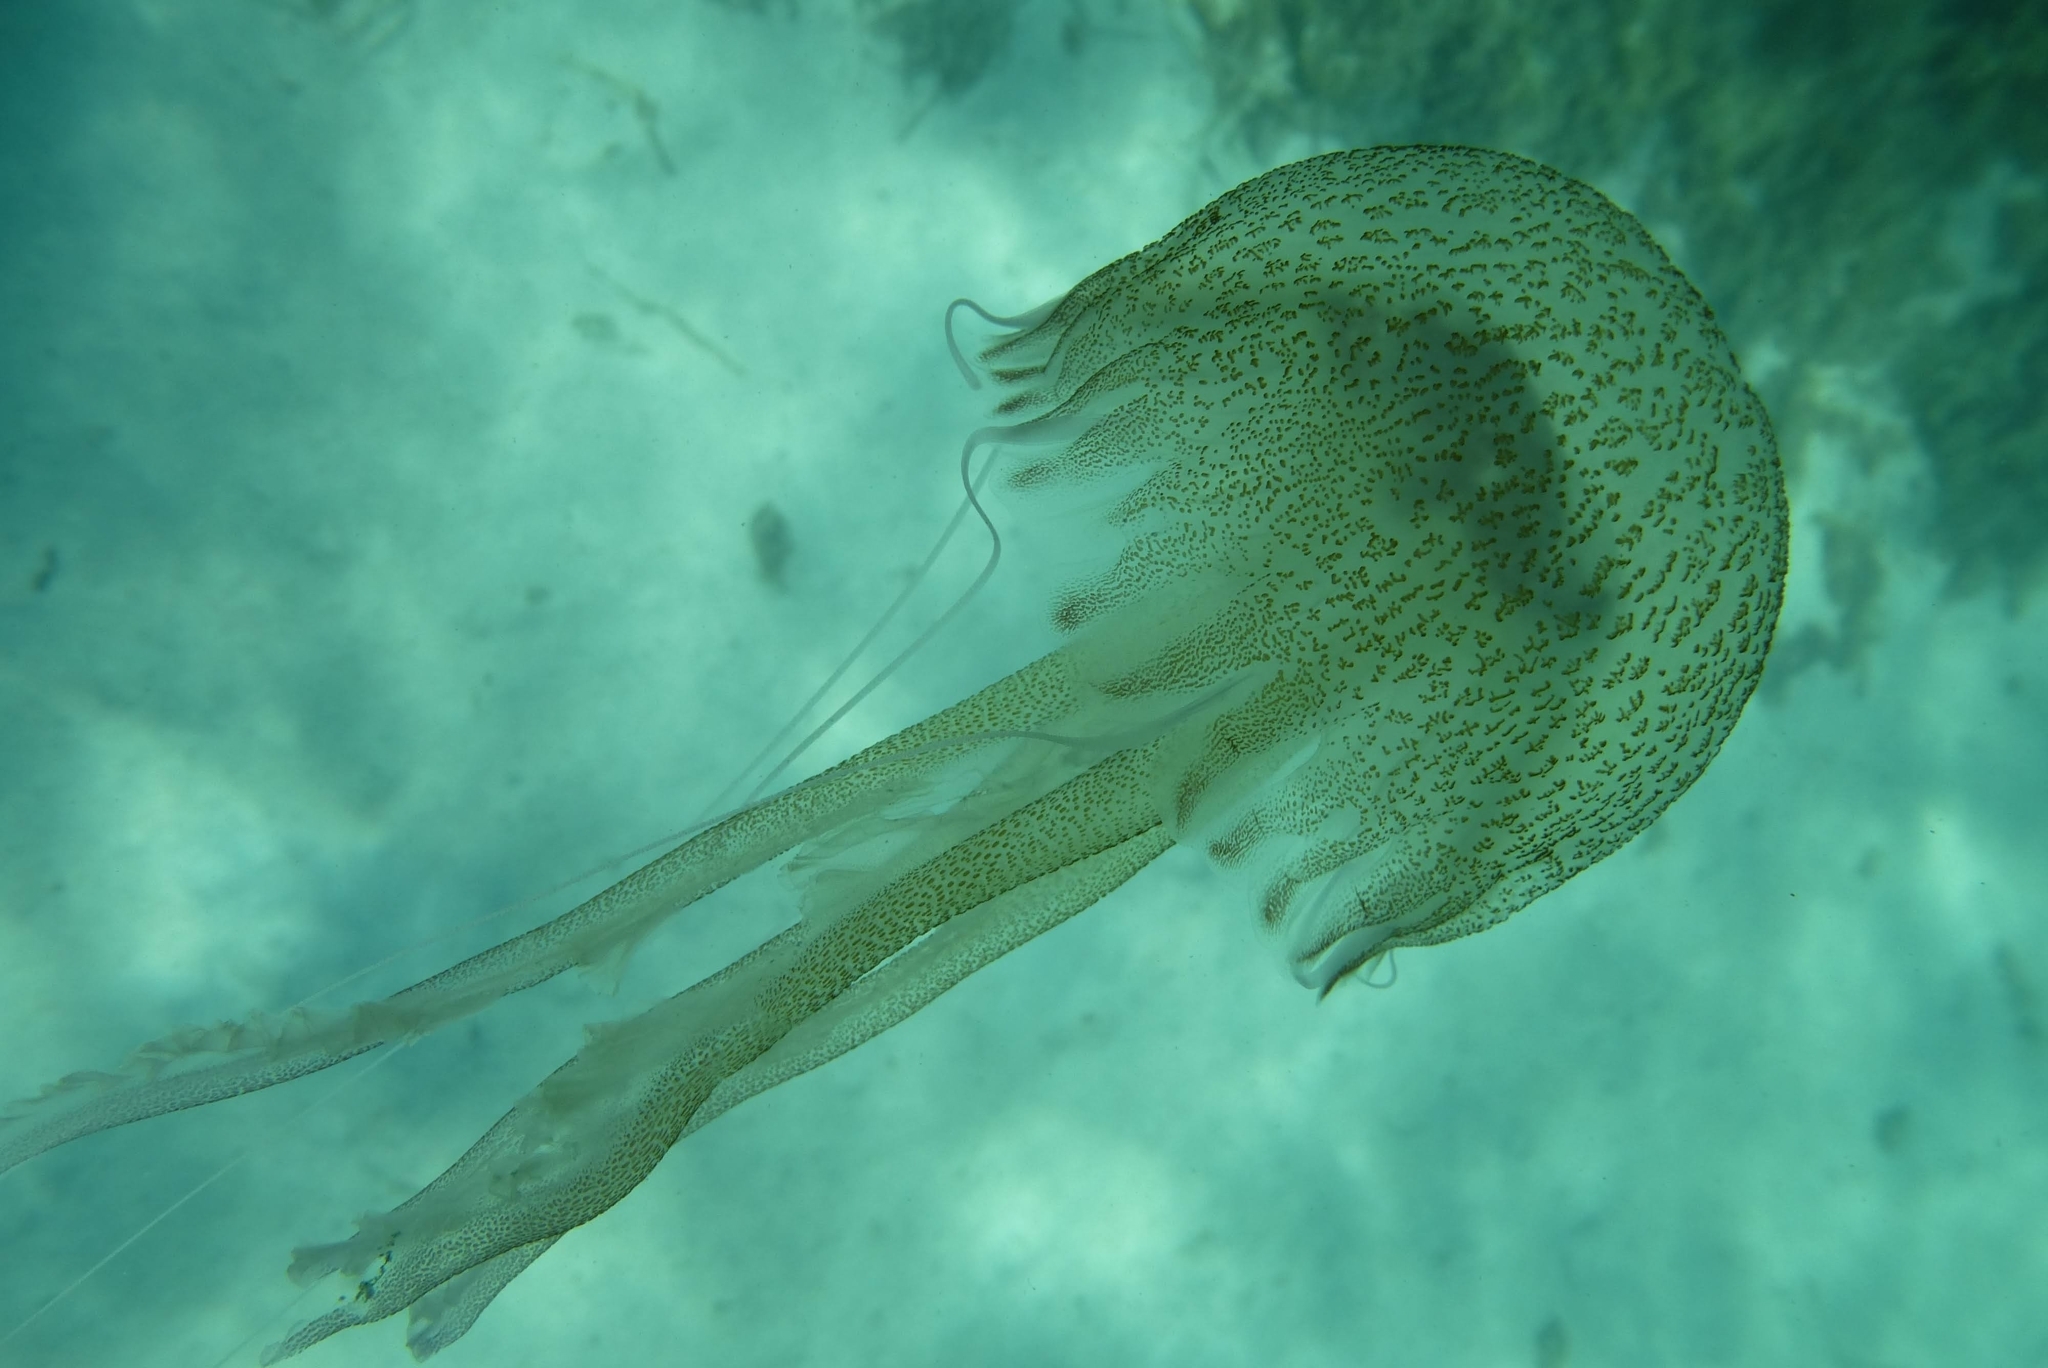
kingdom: Animalia
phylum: Cnidaria
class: Scyphozoa
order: Semaeostomeae
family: Pelagiidae
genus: Pelagia
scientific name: Pelagia noctiluca
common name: Mauve stinger
